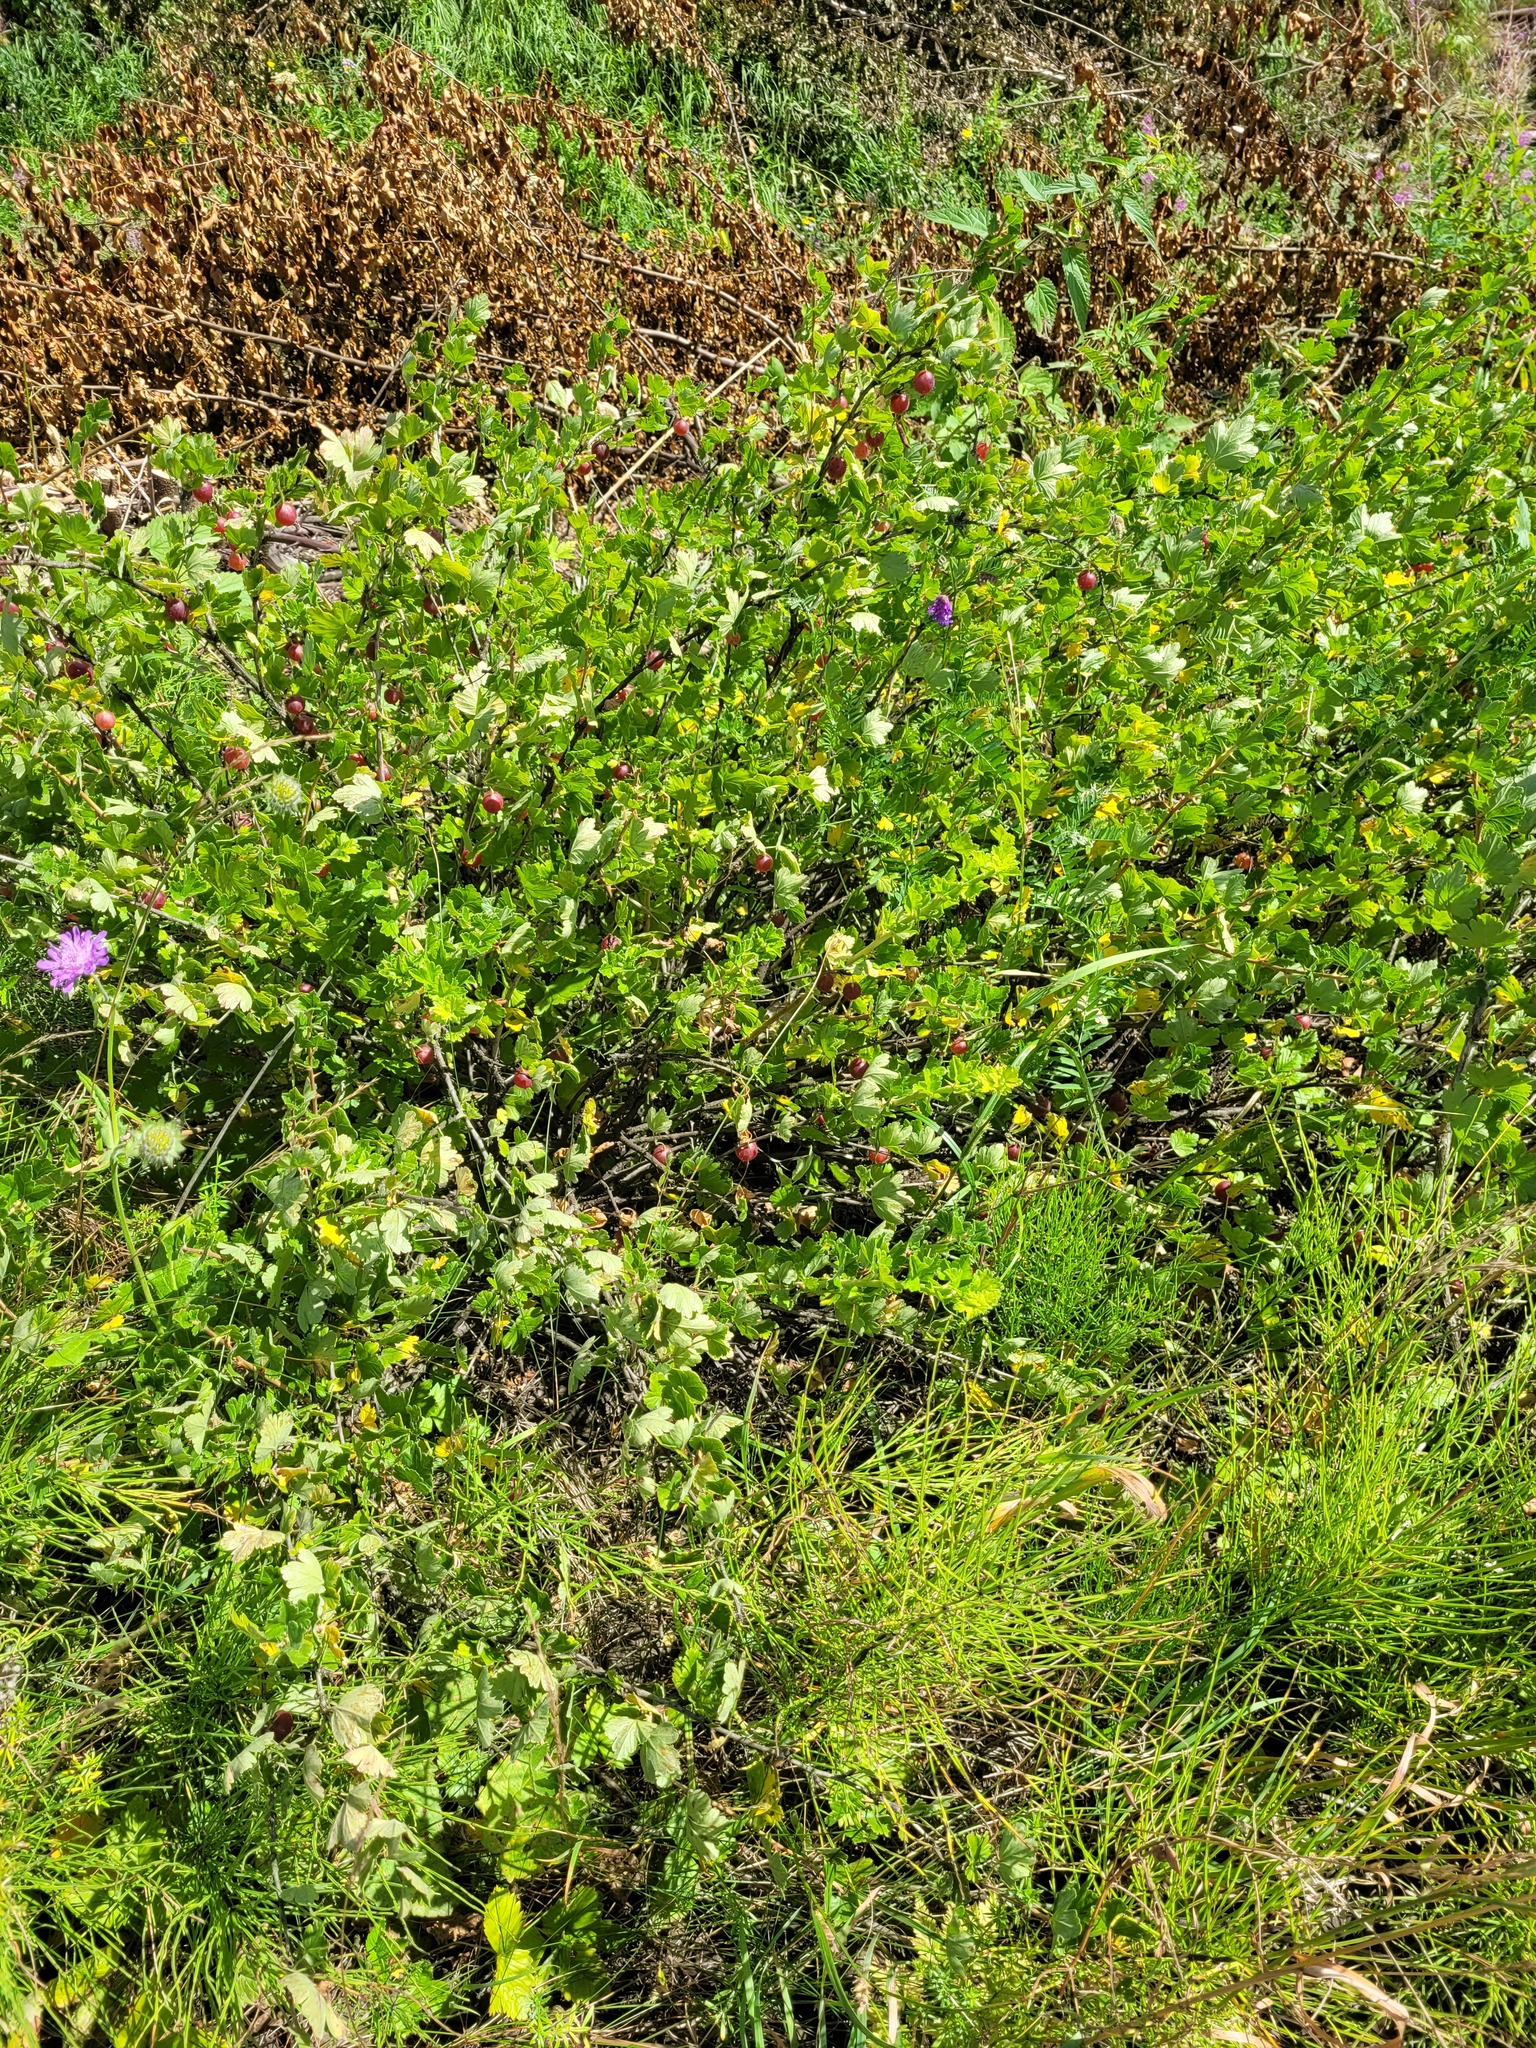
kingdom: Plantae
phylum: Tracheophyta
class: Magnoliopsida
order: Saxifragales
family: Grossulariaceae
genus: Ribes
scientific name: Ribes uva-crispa
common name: Gooseberry
